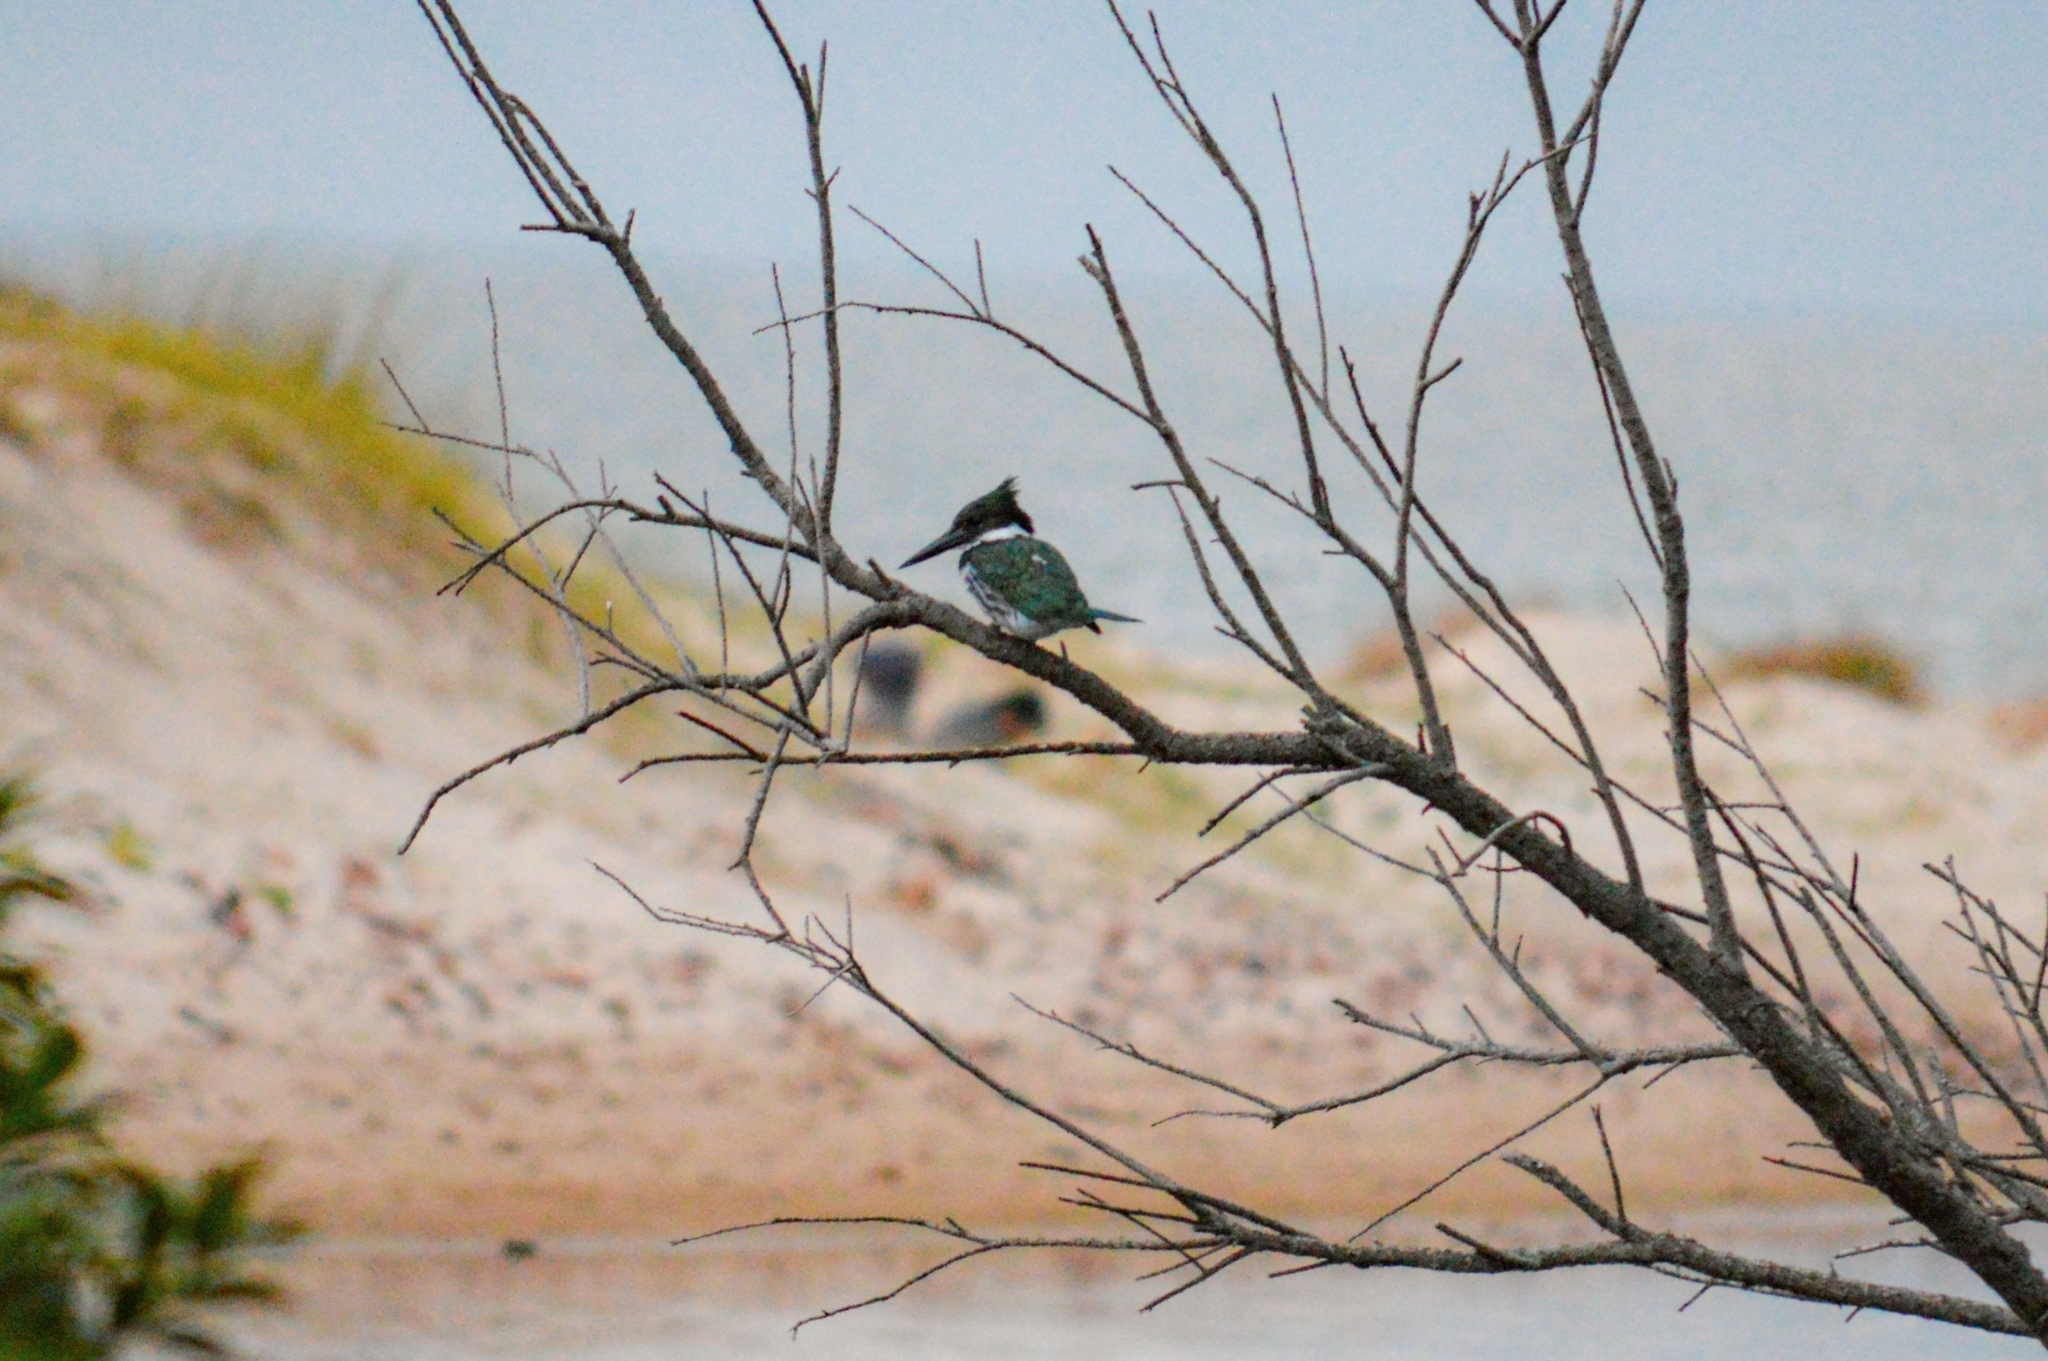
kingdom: Animalia
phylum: Chordata
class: Aves
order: Coraciiformes
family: Alcedinidae
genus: Chloroceryle
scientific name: Chloroceryle amazona
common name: Amazon kingfisher
